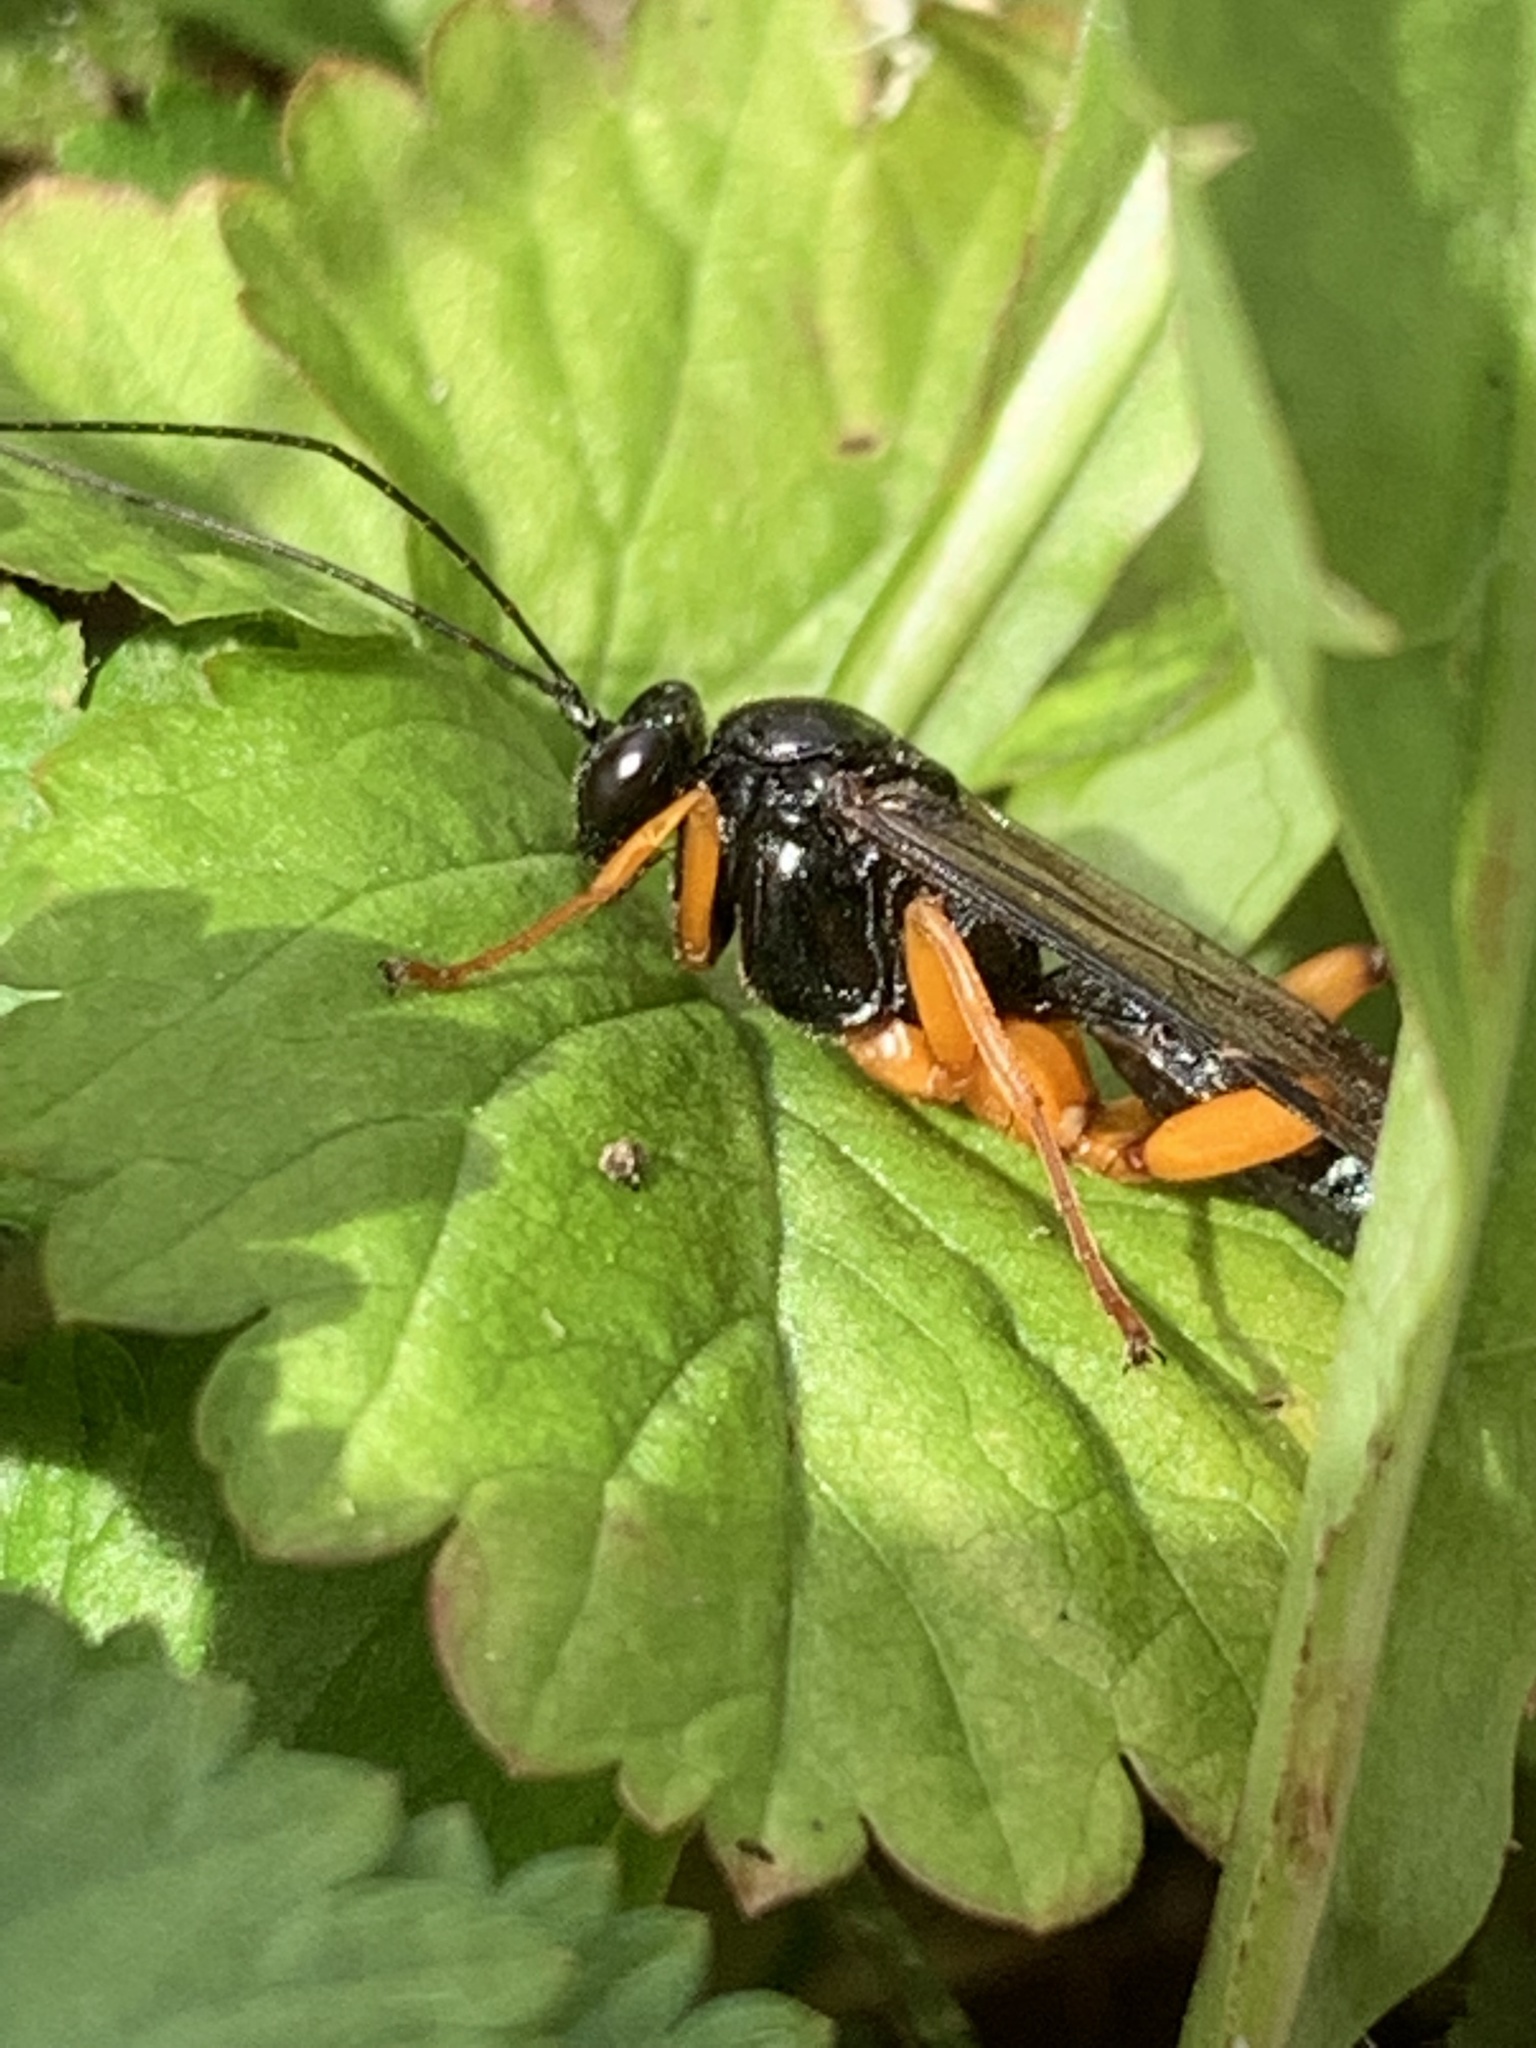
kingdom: Animalia
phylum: Arthropoda
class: Insecta
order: Hymenoptera
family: Ichneumonidae
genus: Pimpla
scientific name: Pimpla pedalis
